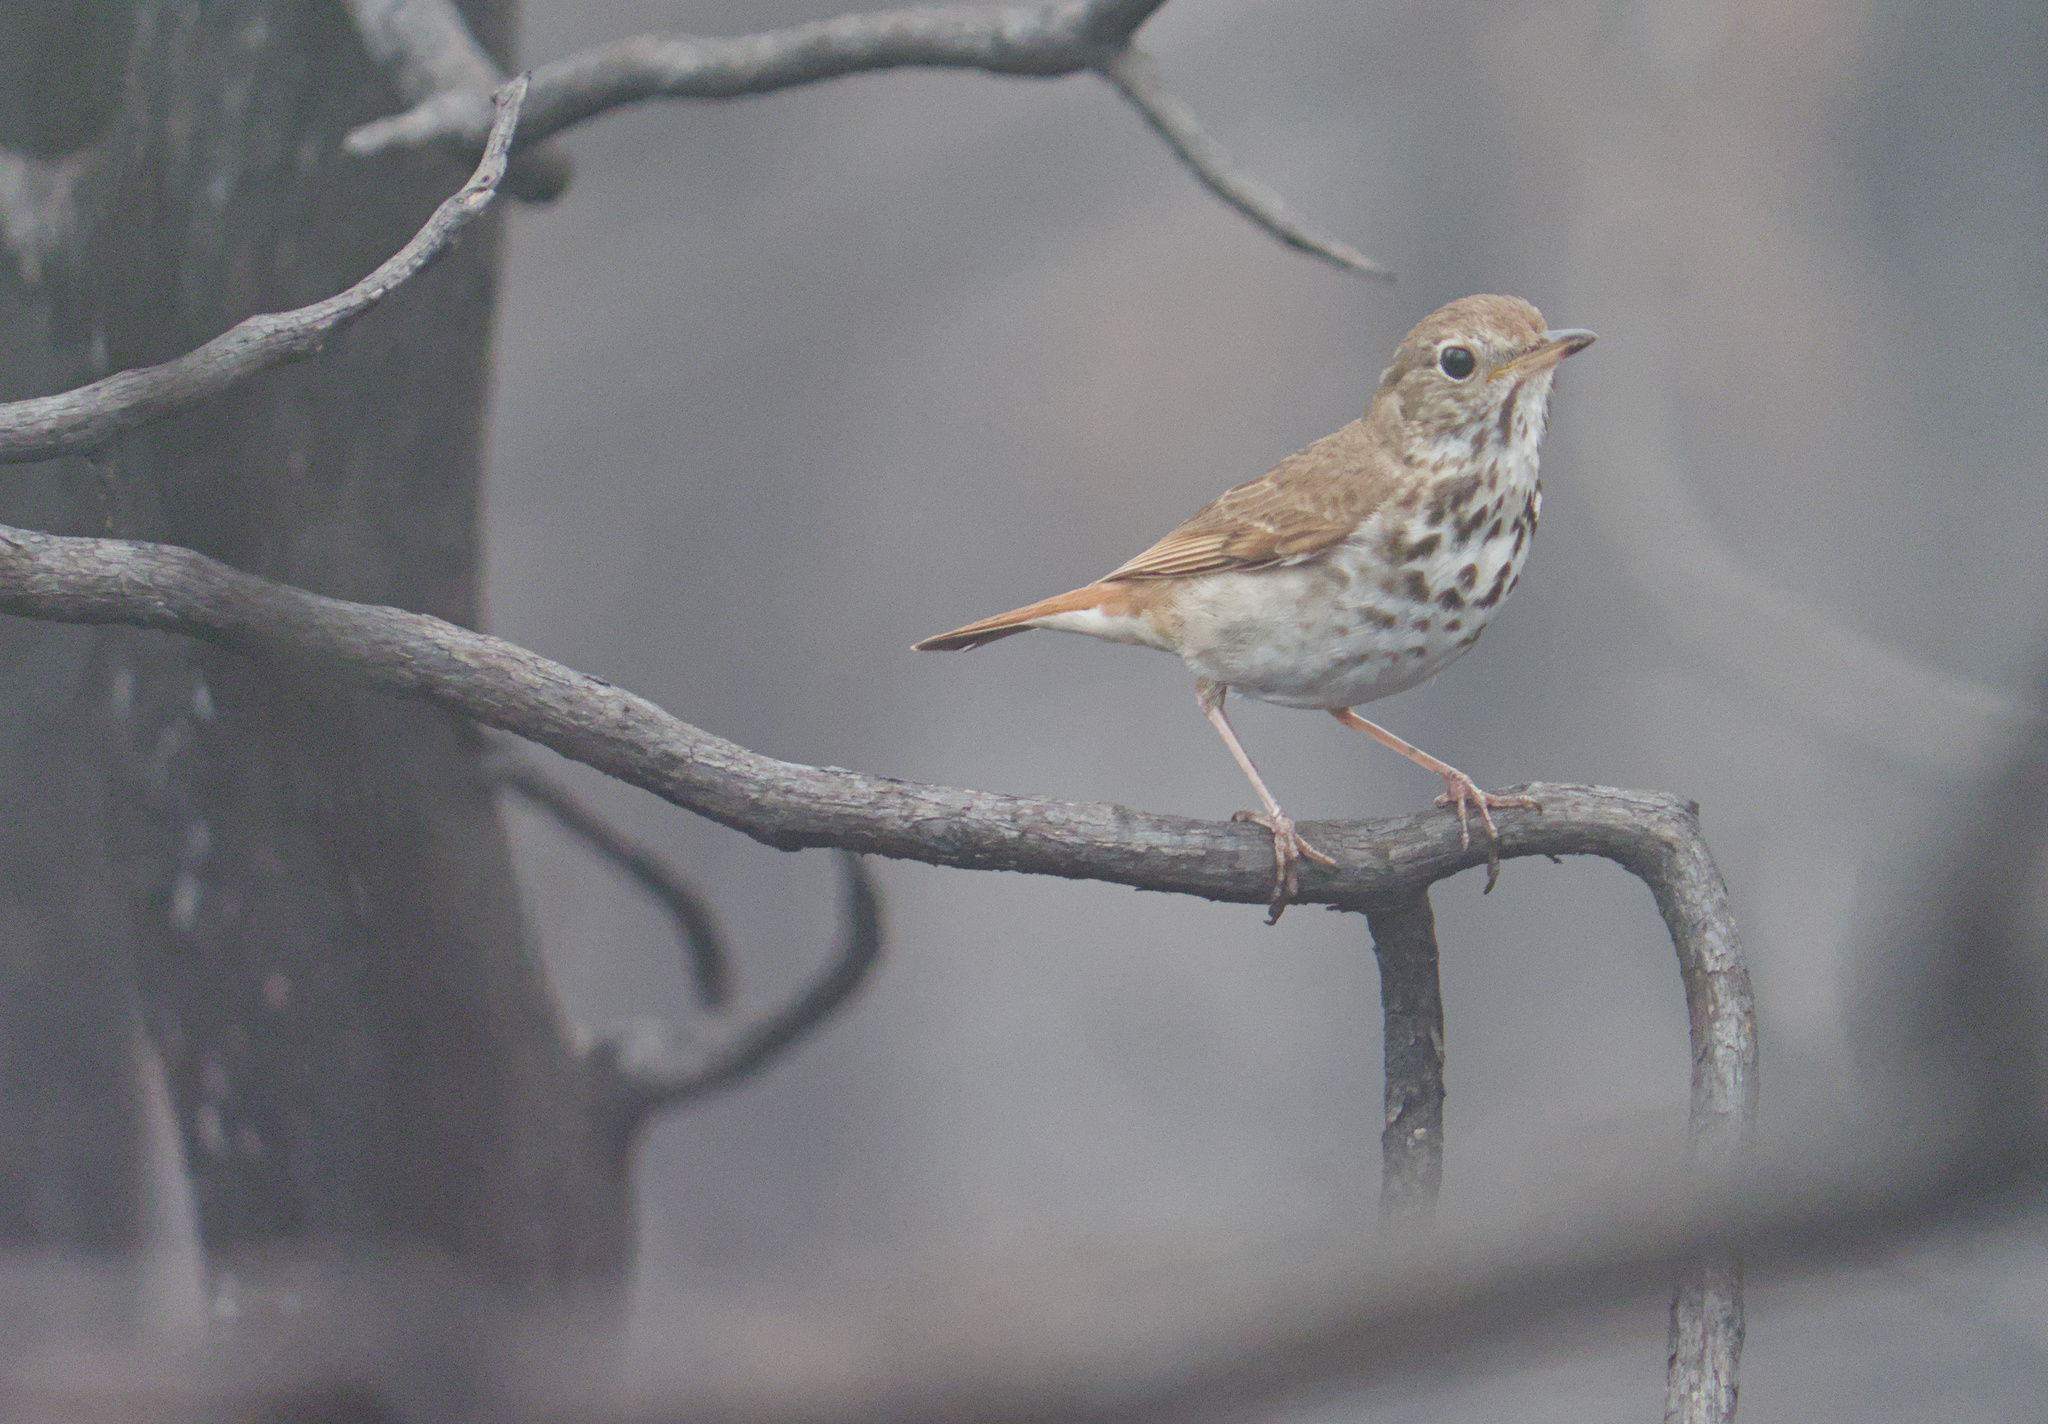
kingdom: Animalia
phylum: Chordata
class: Aves
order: Passeriformes
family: Turdidae
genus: Catharus
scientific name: Catharus guttatus
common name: Hermit thrush
